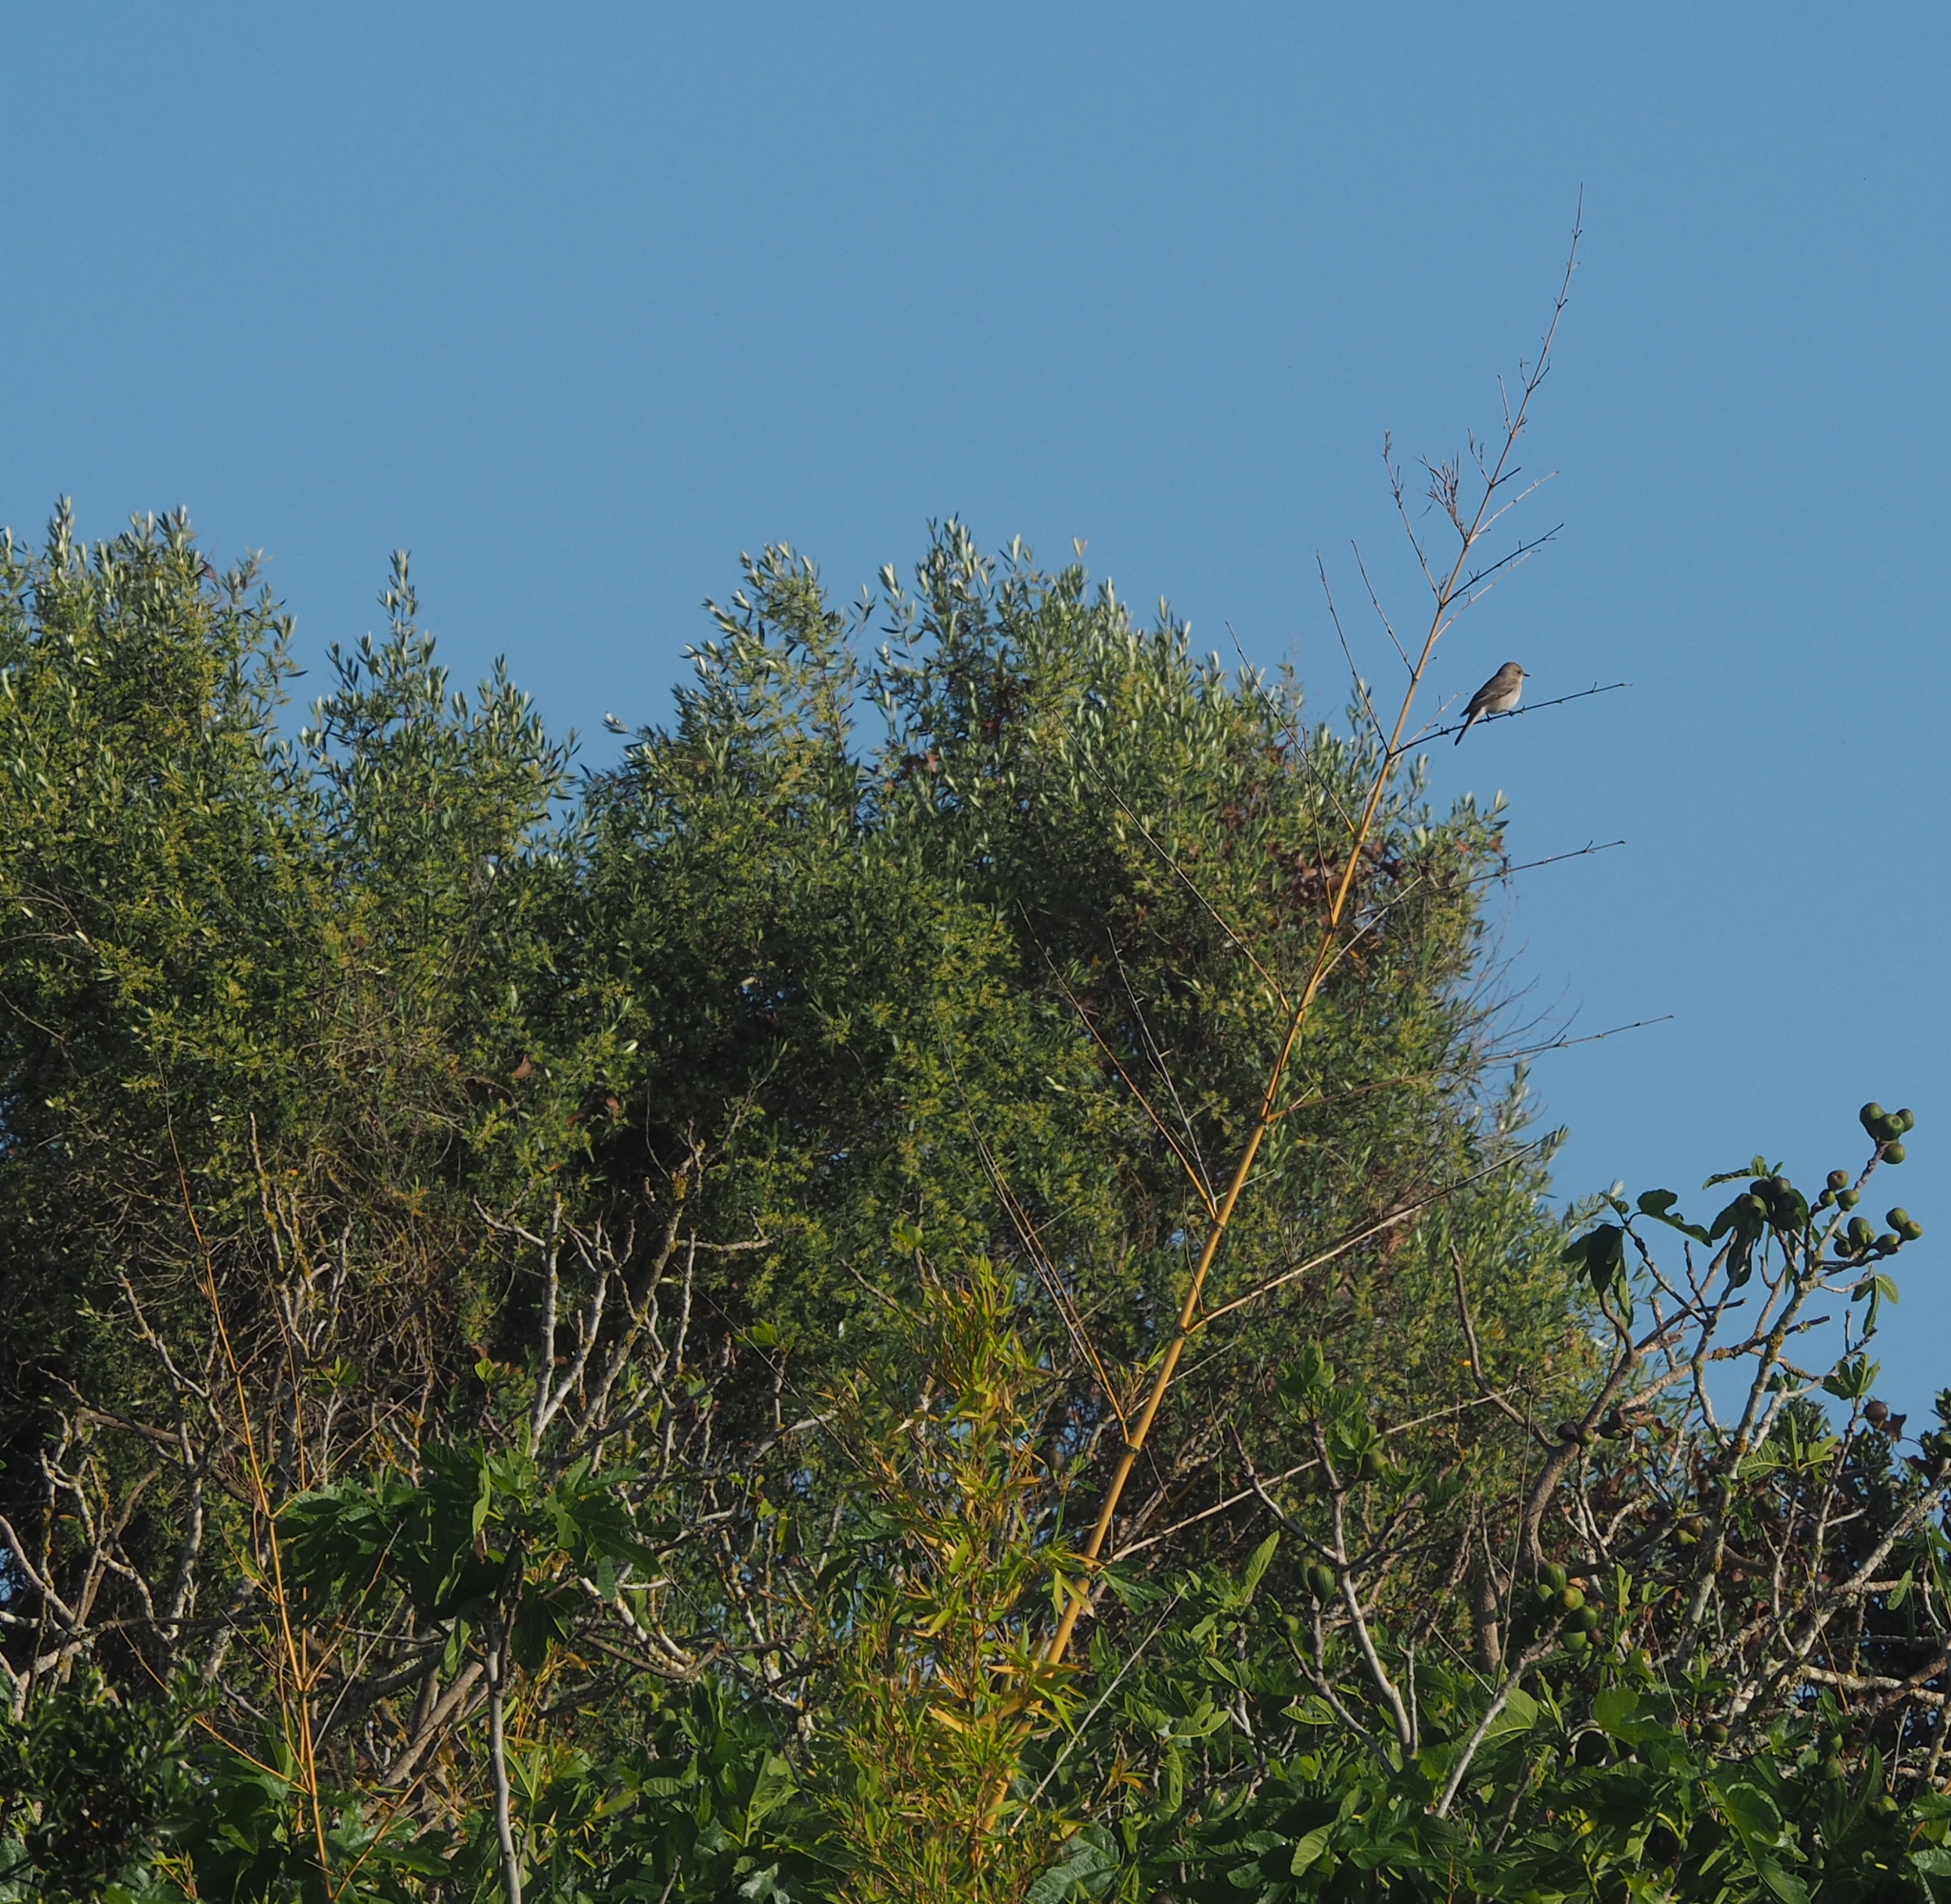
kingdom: Animalia
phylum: Chordata
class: Aves
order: Passeriformes
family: Muscicapidae
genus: Muscicapa
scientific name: Muscicapa striata
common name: Spotted flycatcher
